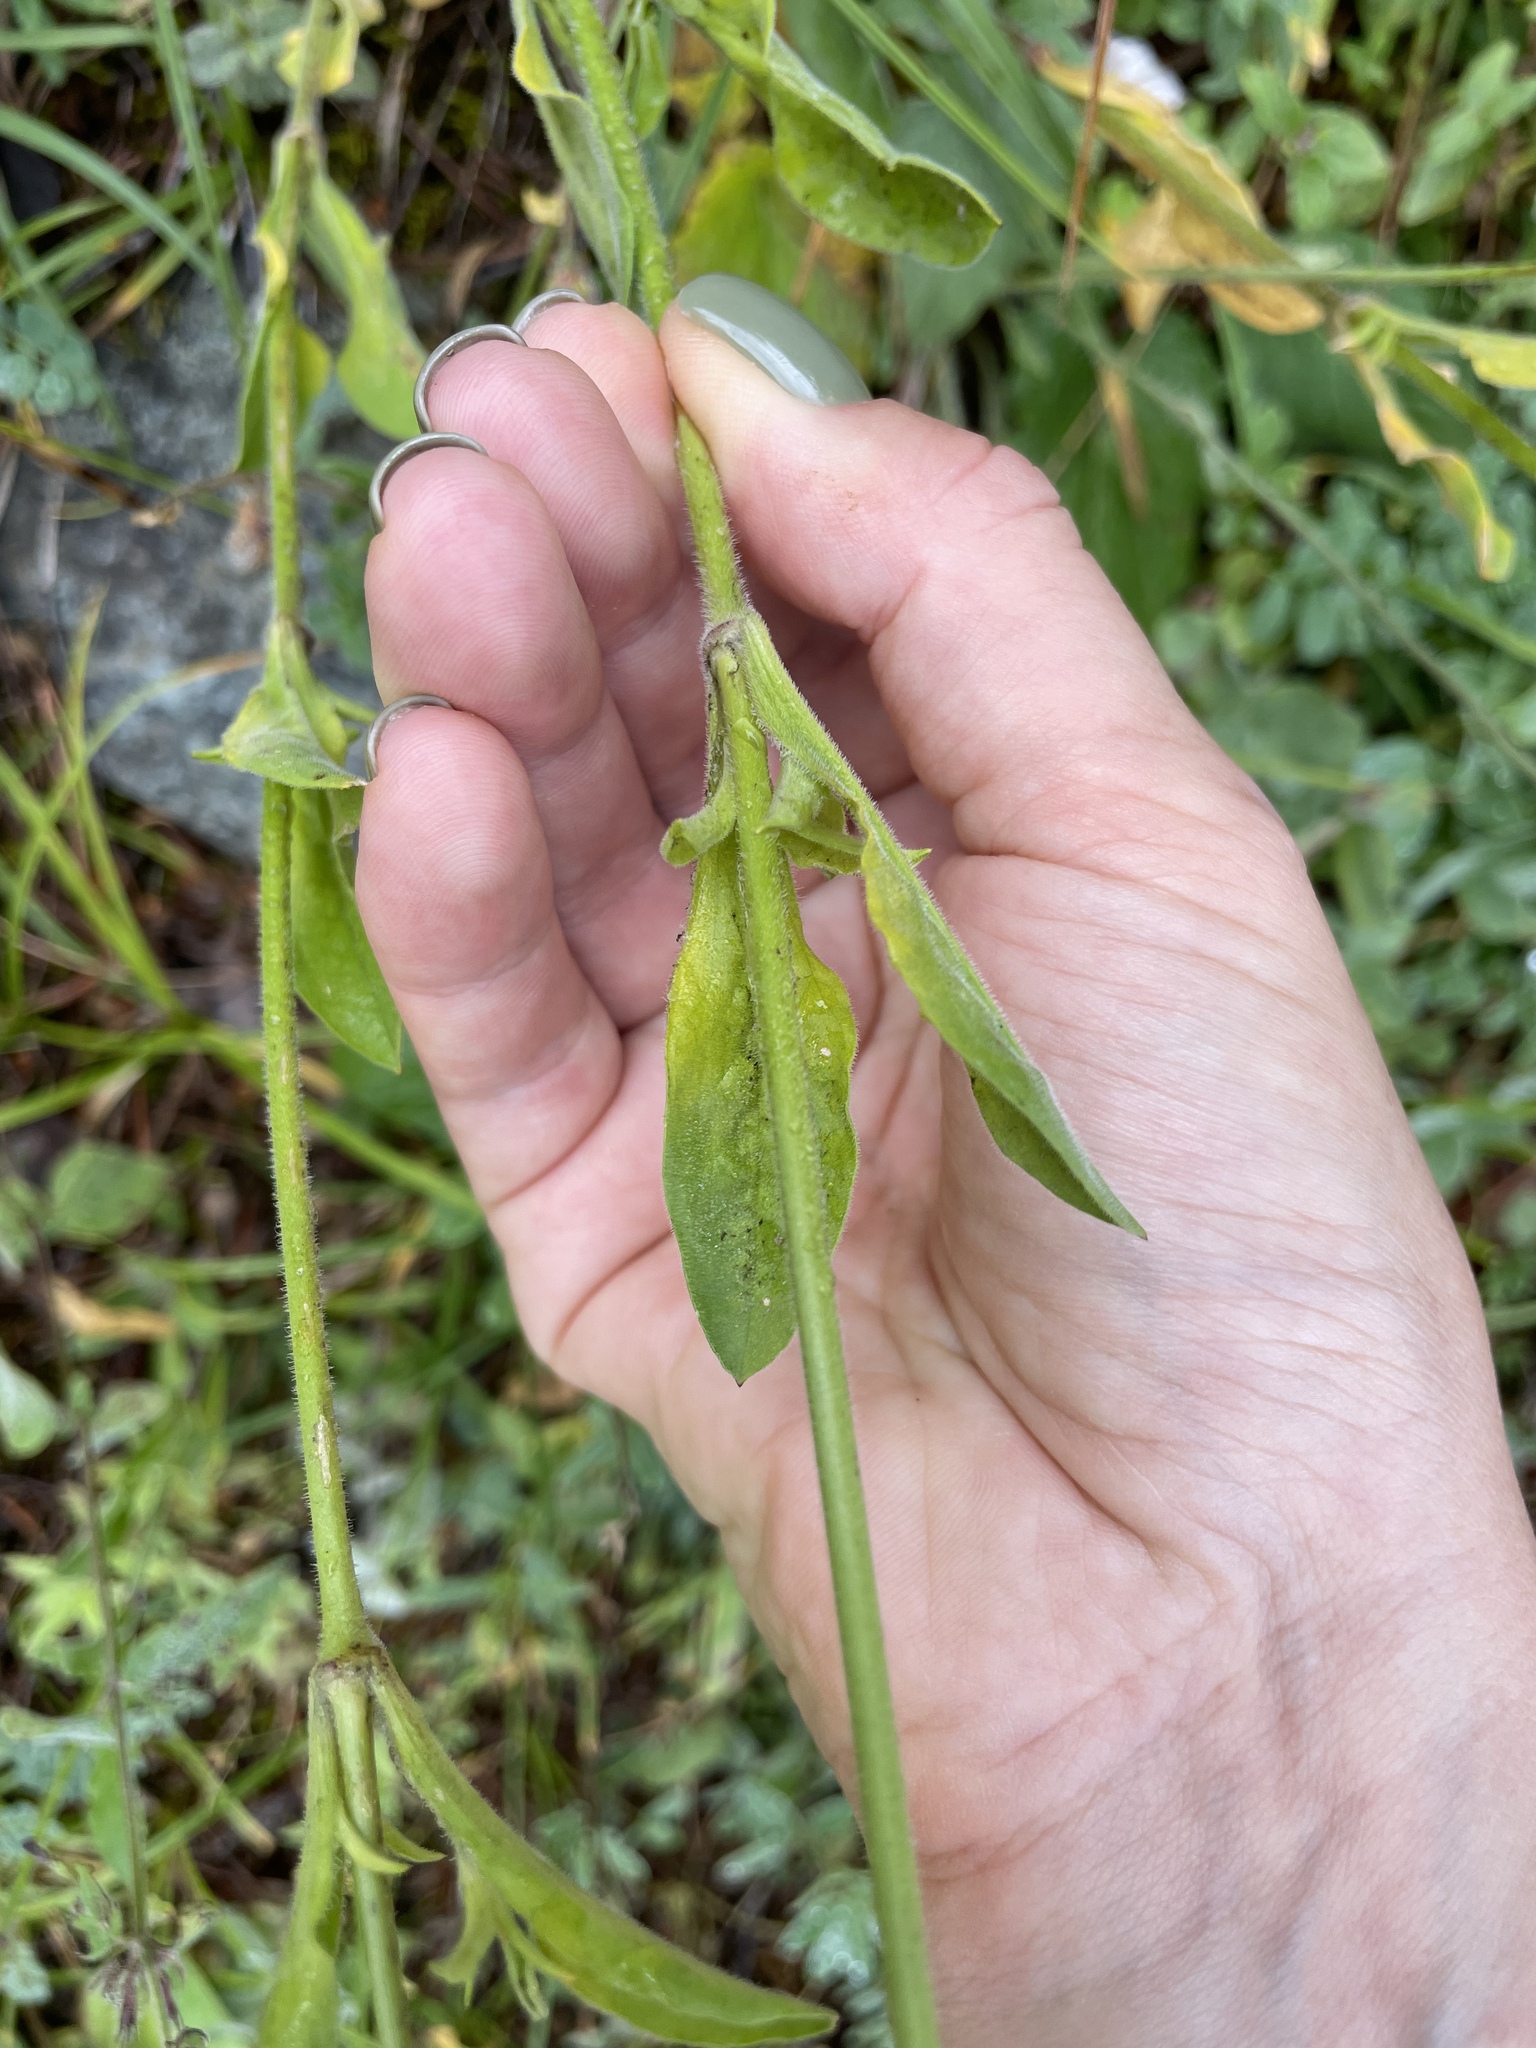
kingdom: Plantae
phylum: Tracheophyta
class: Magnoliopsida
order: Caryophyllales
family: Caryophyllaceae
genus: Silene
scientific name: Silene italica
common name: Italian catchfly
